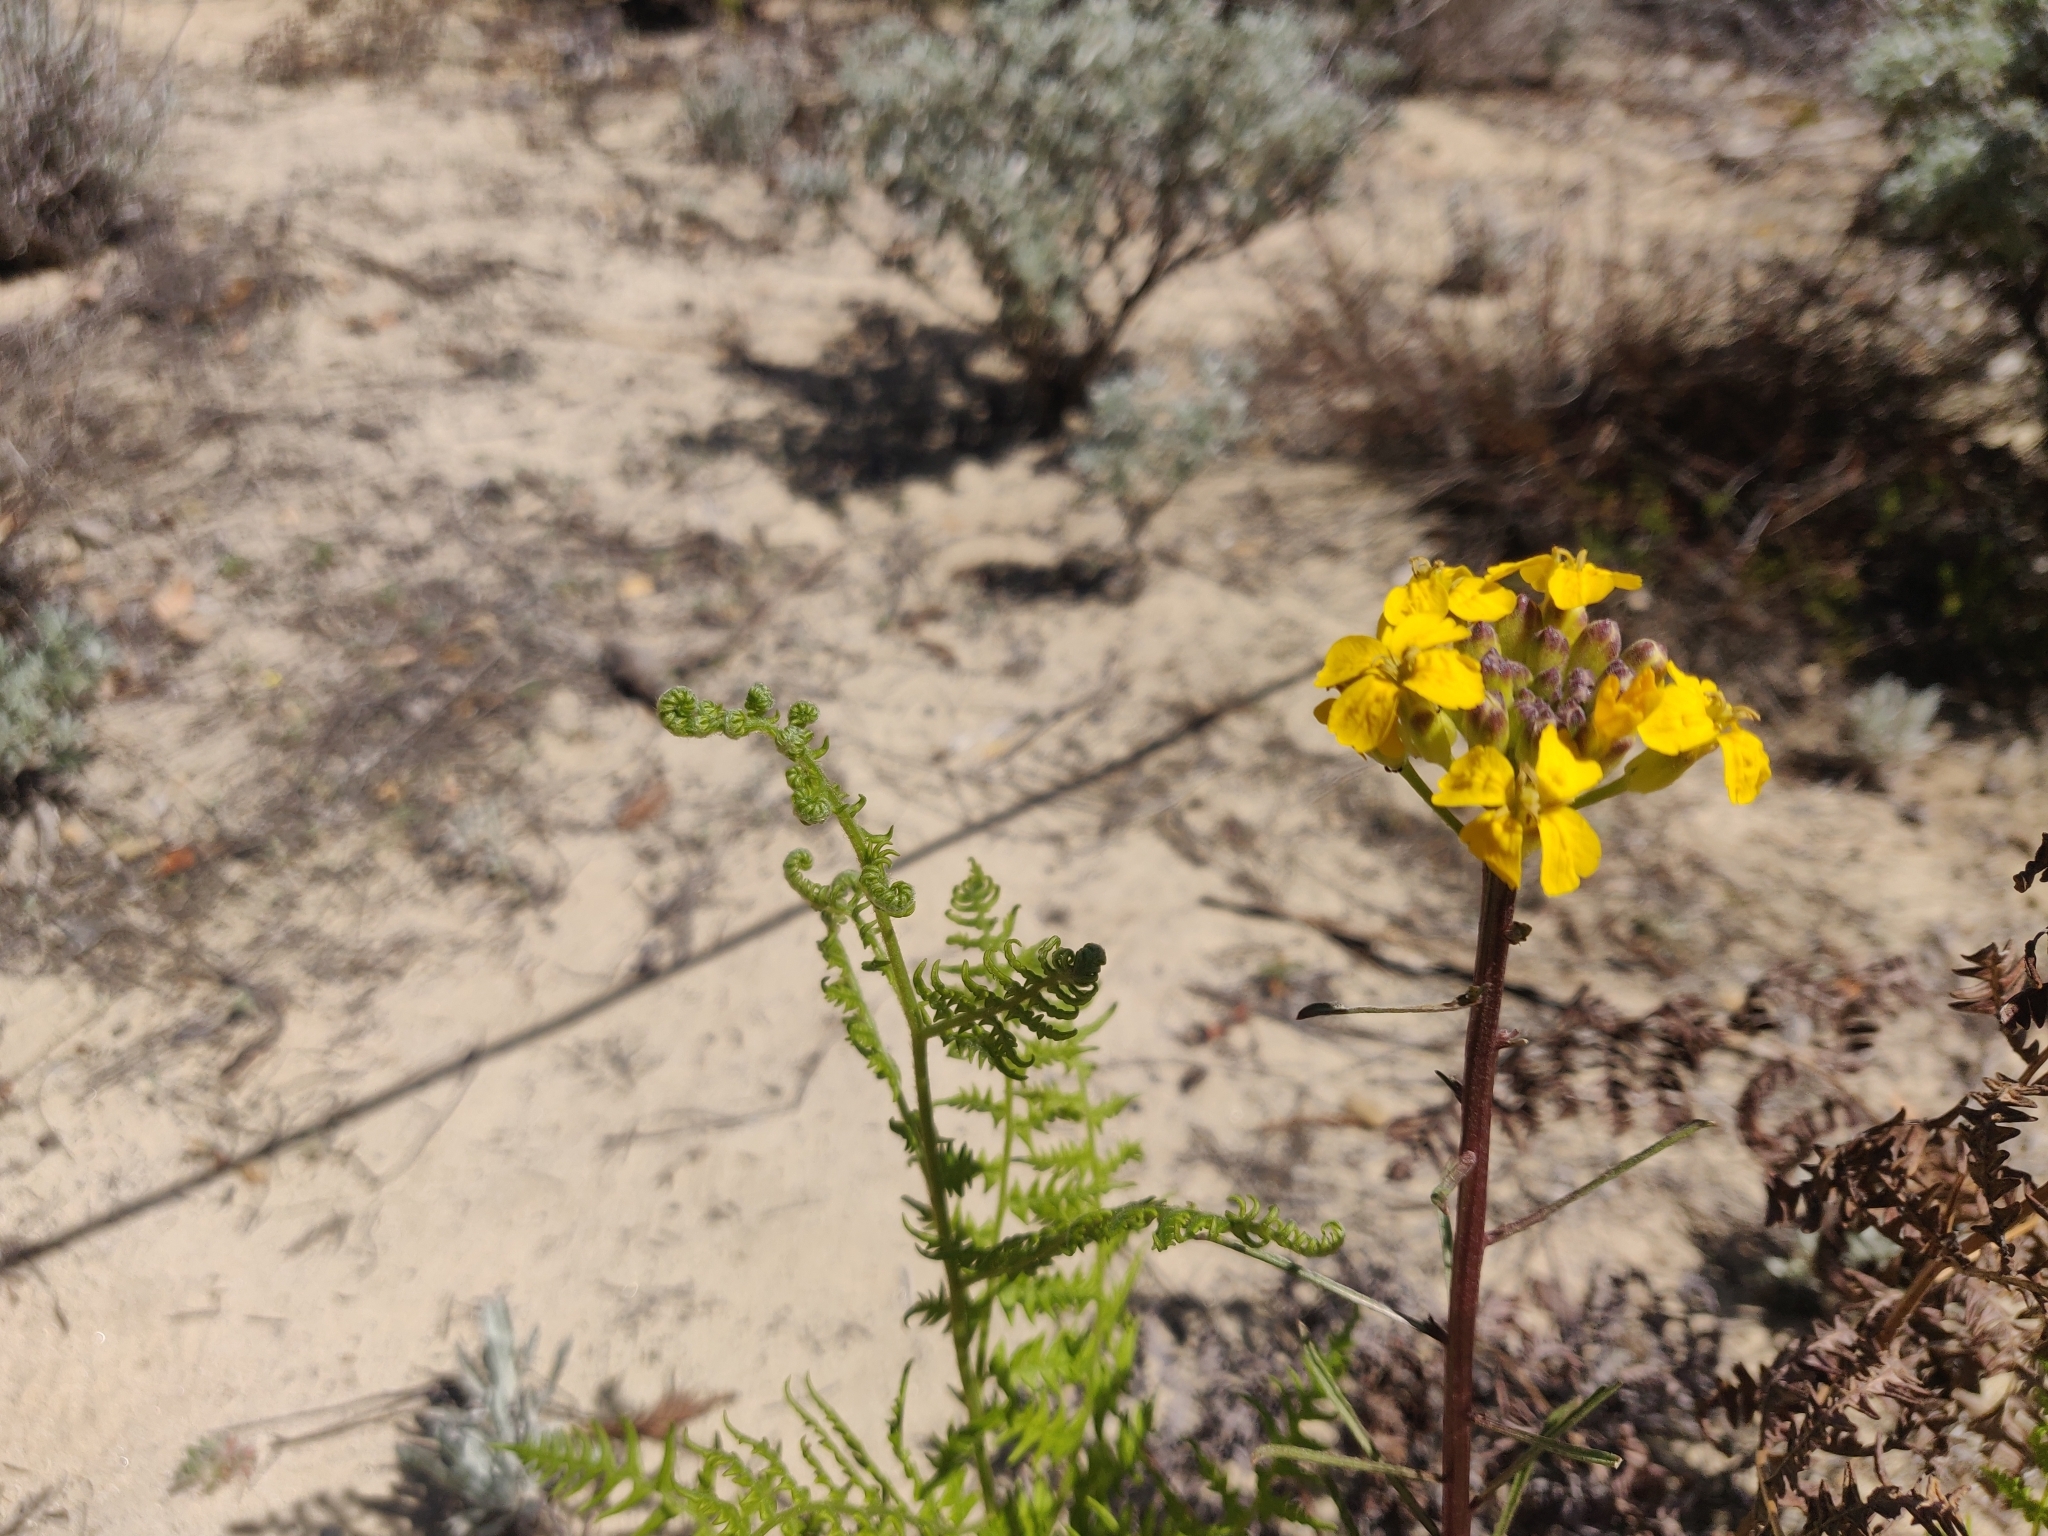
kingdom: Plantae
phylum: Tracheophyta
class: Magnoliopsida
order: Brassicales
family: Brassicaceae
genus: Erysimum
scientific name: Erysimum teretifolium
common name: Ben lomond wallflower
